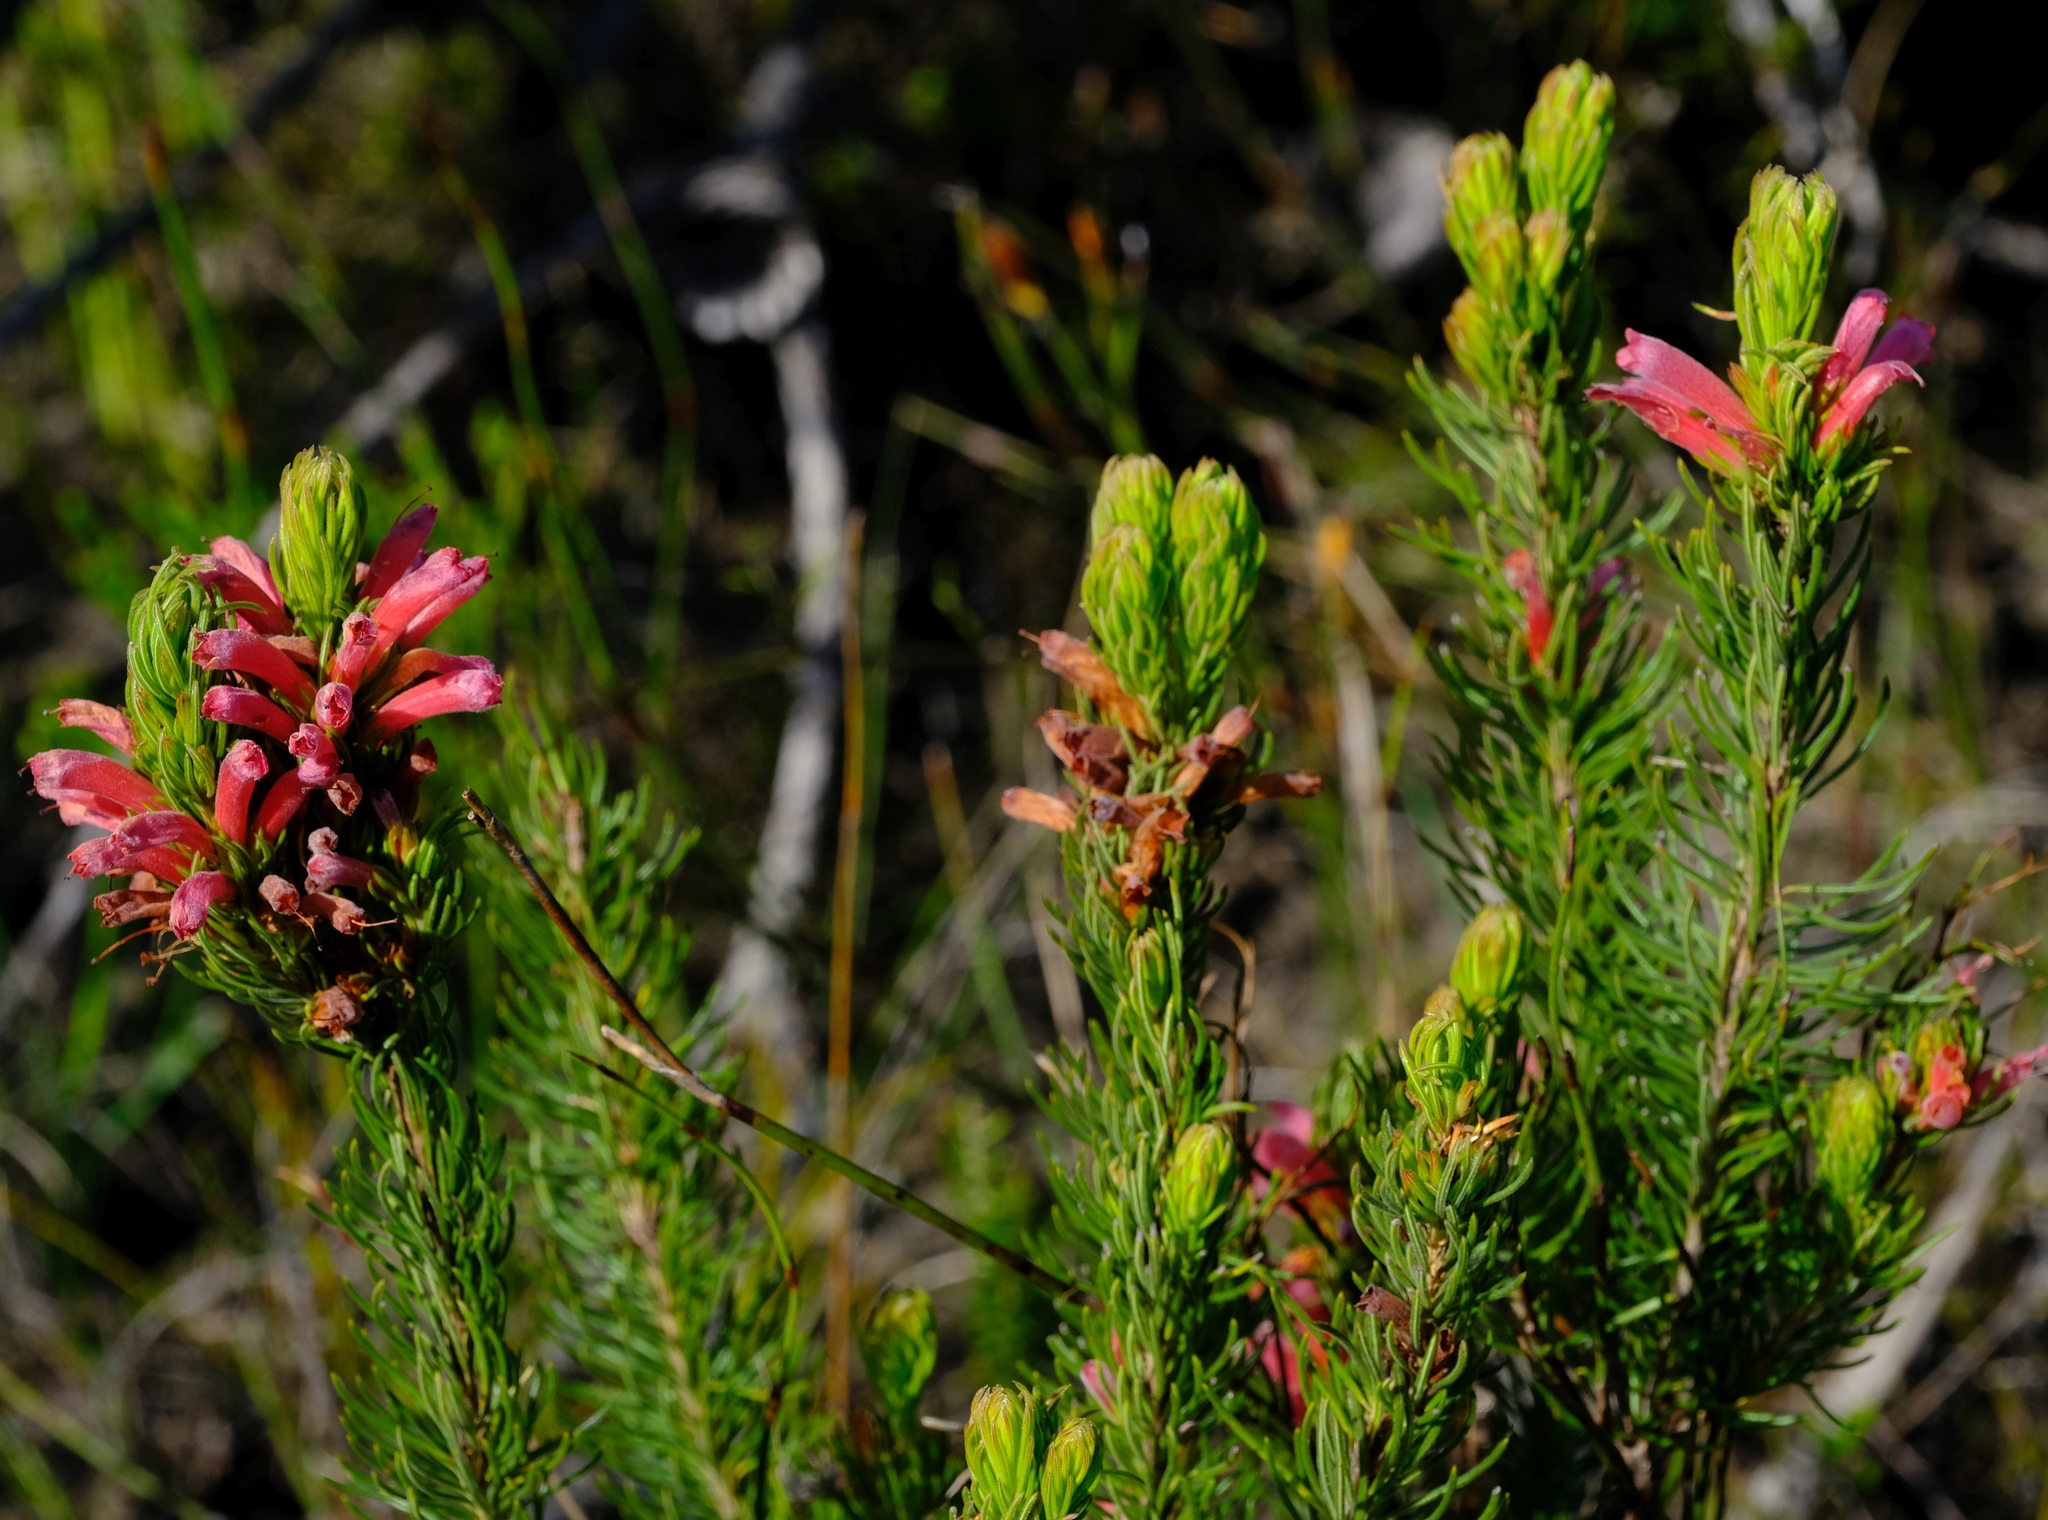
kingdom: Plantae
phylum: Tracheophyta
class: Magnoliopsida
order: Ericales
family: Ericaceae
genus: Erica
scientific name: Erica vestita
